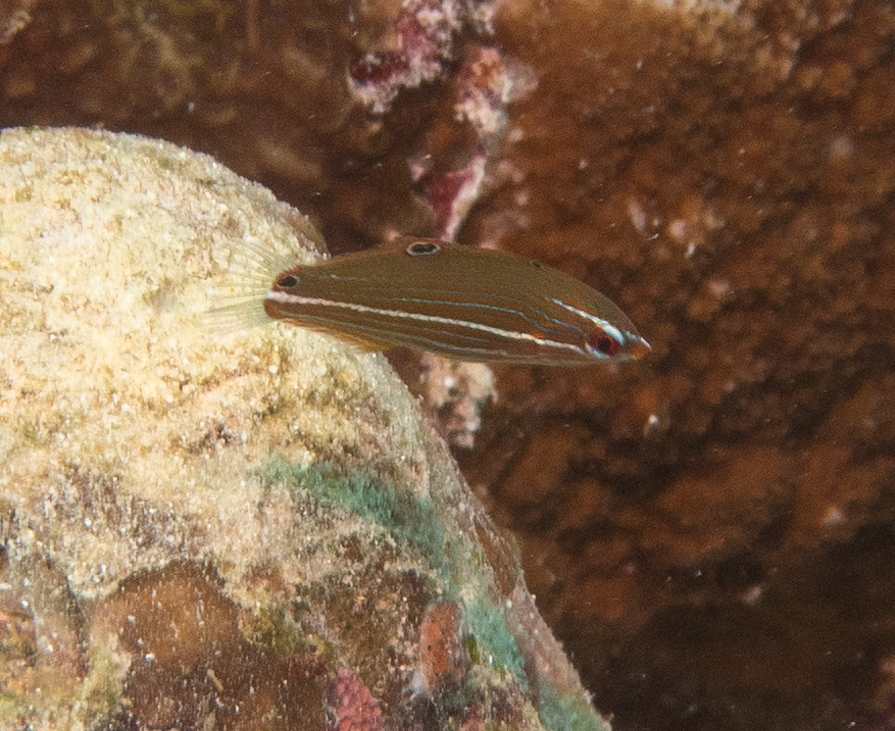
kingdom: Animalia
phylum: Chordata
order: Perciformes
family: Labridae
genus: Halichoeres
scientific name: Halichoeres melanurus
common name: Hoeven's wrasse
